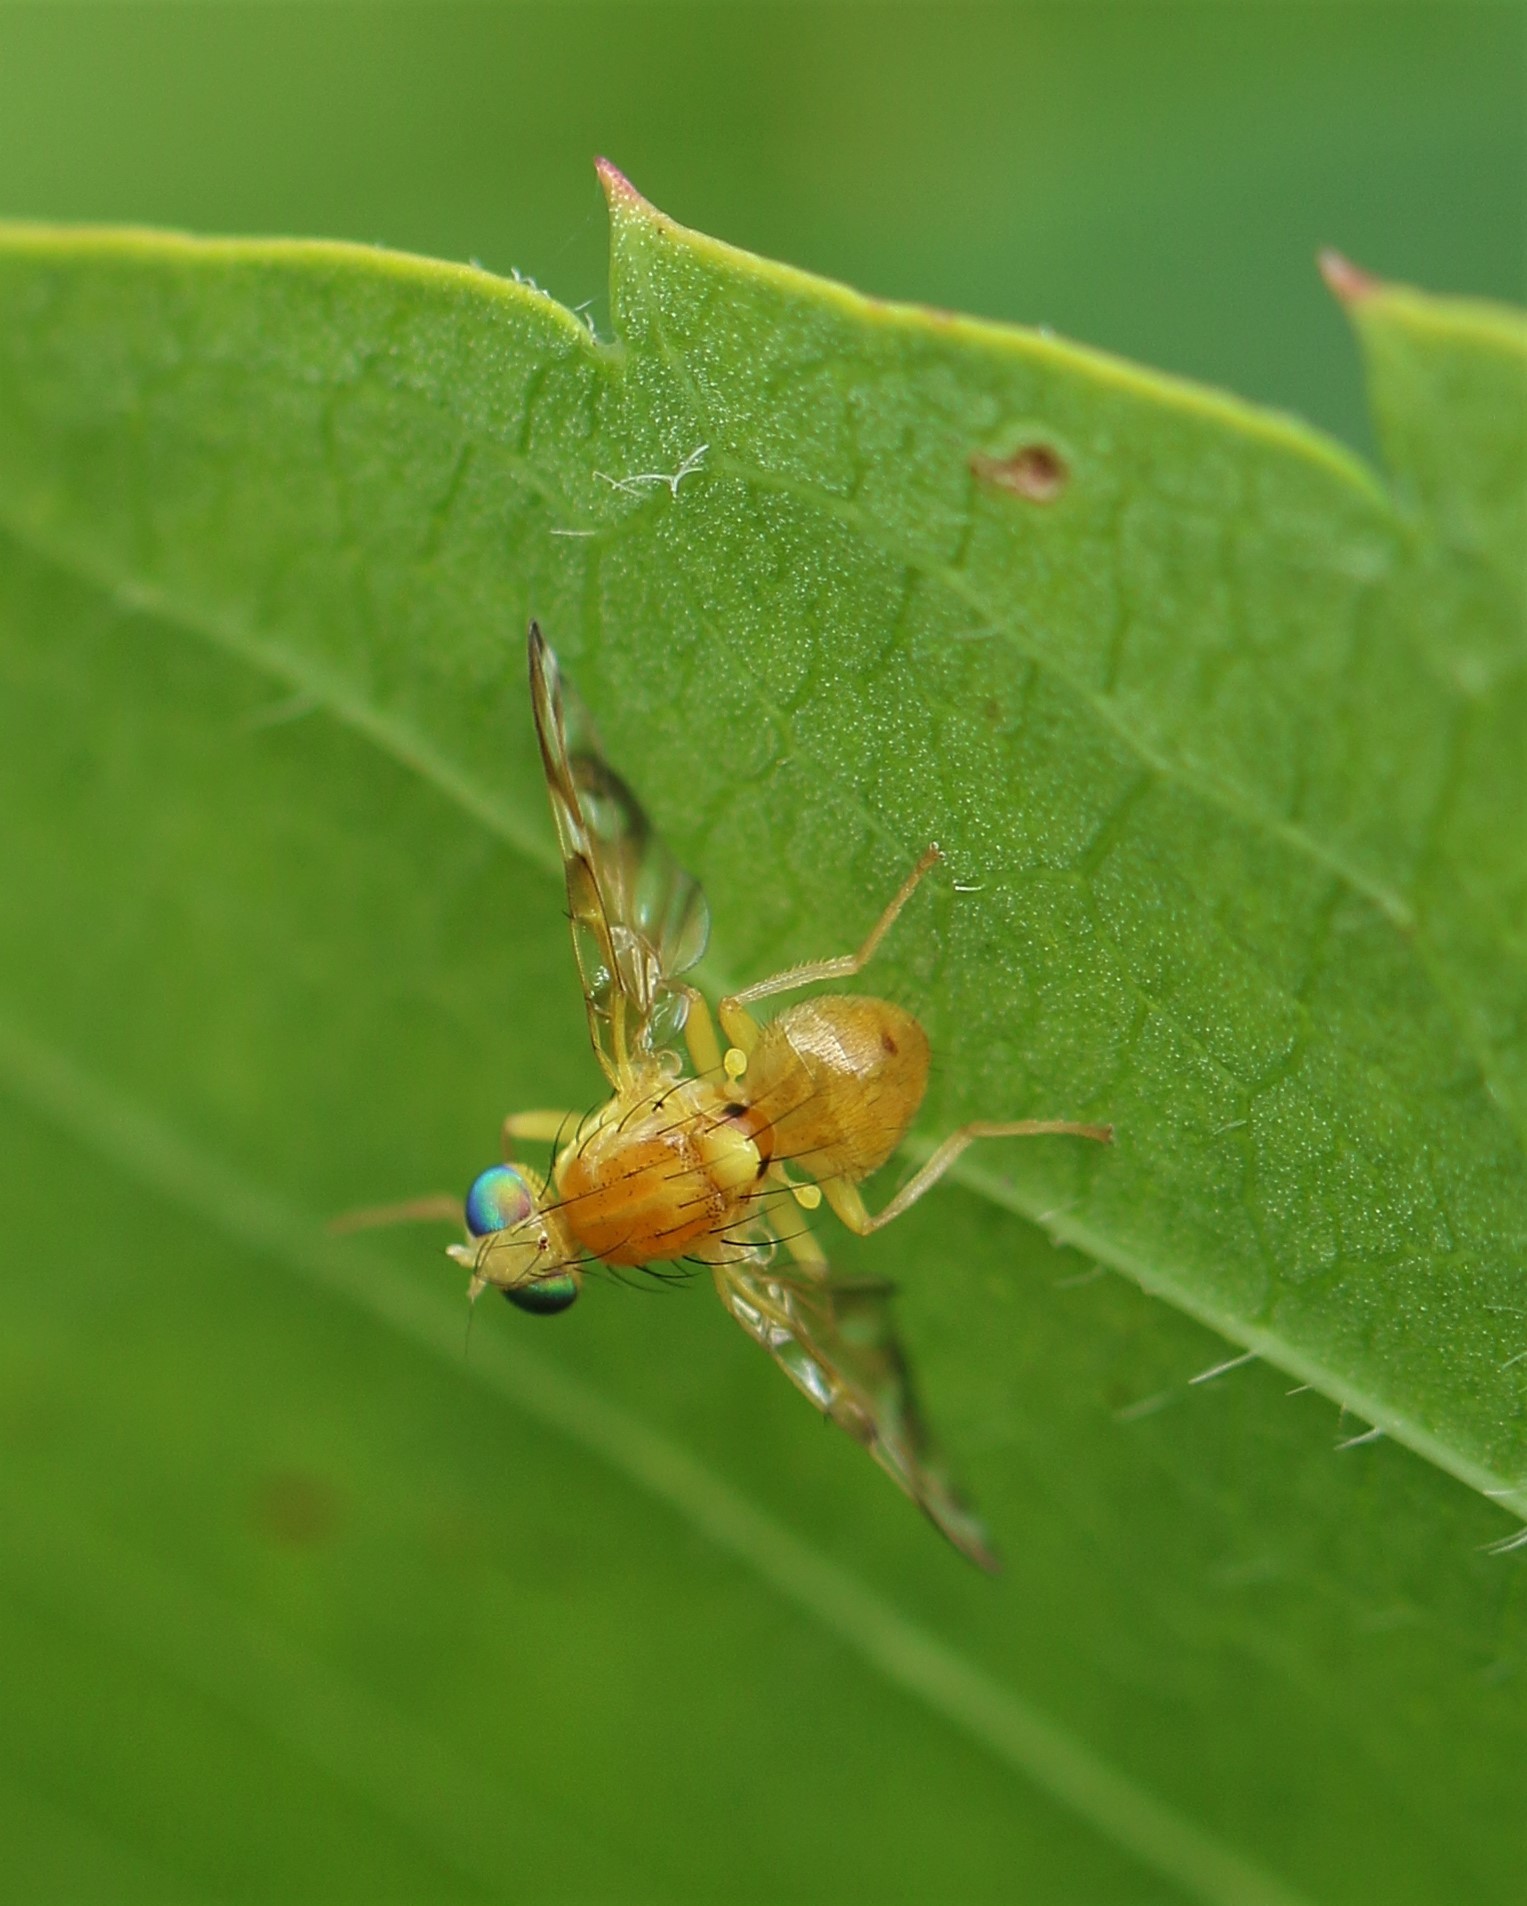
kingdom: Animalia
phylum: Arthropoda
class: Insecta
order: Diptera
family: Tephritidae
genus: Euleia
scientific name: Euleia fratria
